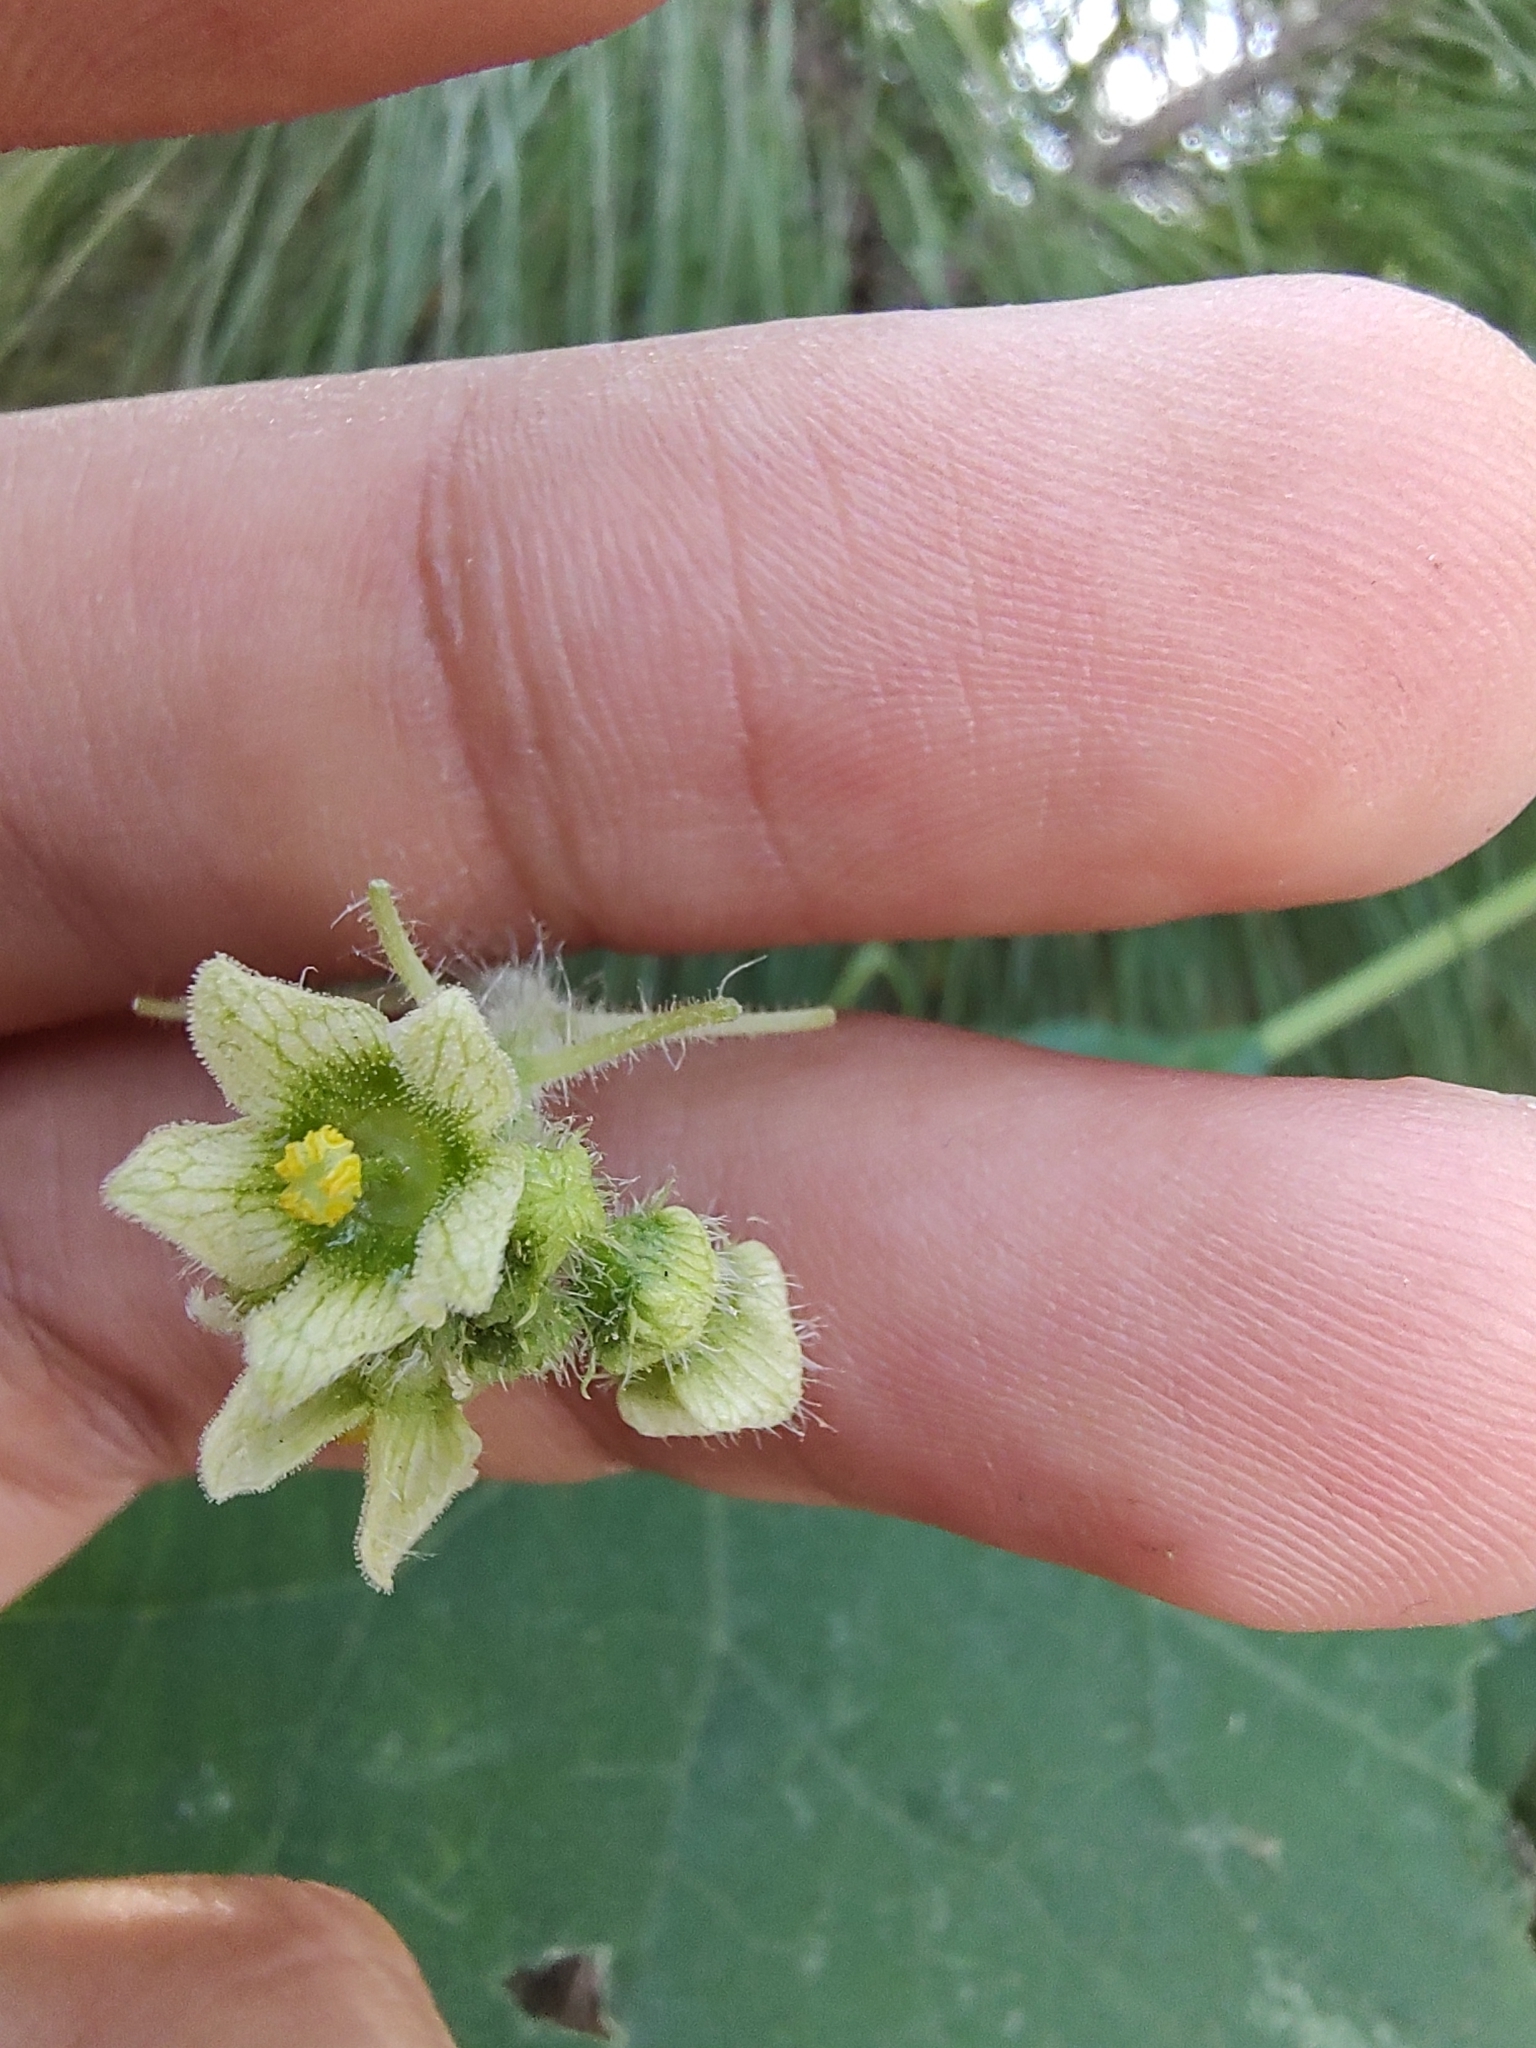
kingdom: Plantae
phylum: Tracheophyta
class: Magnoliopsida
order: Cucurbitales
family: Cucurbitaceae
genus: Sicyos
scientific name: Sicyos microphyllus
